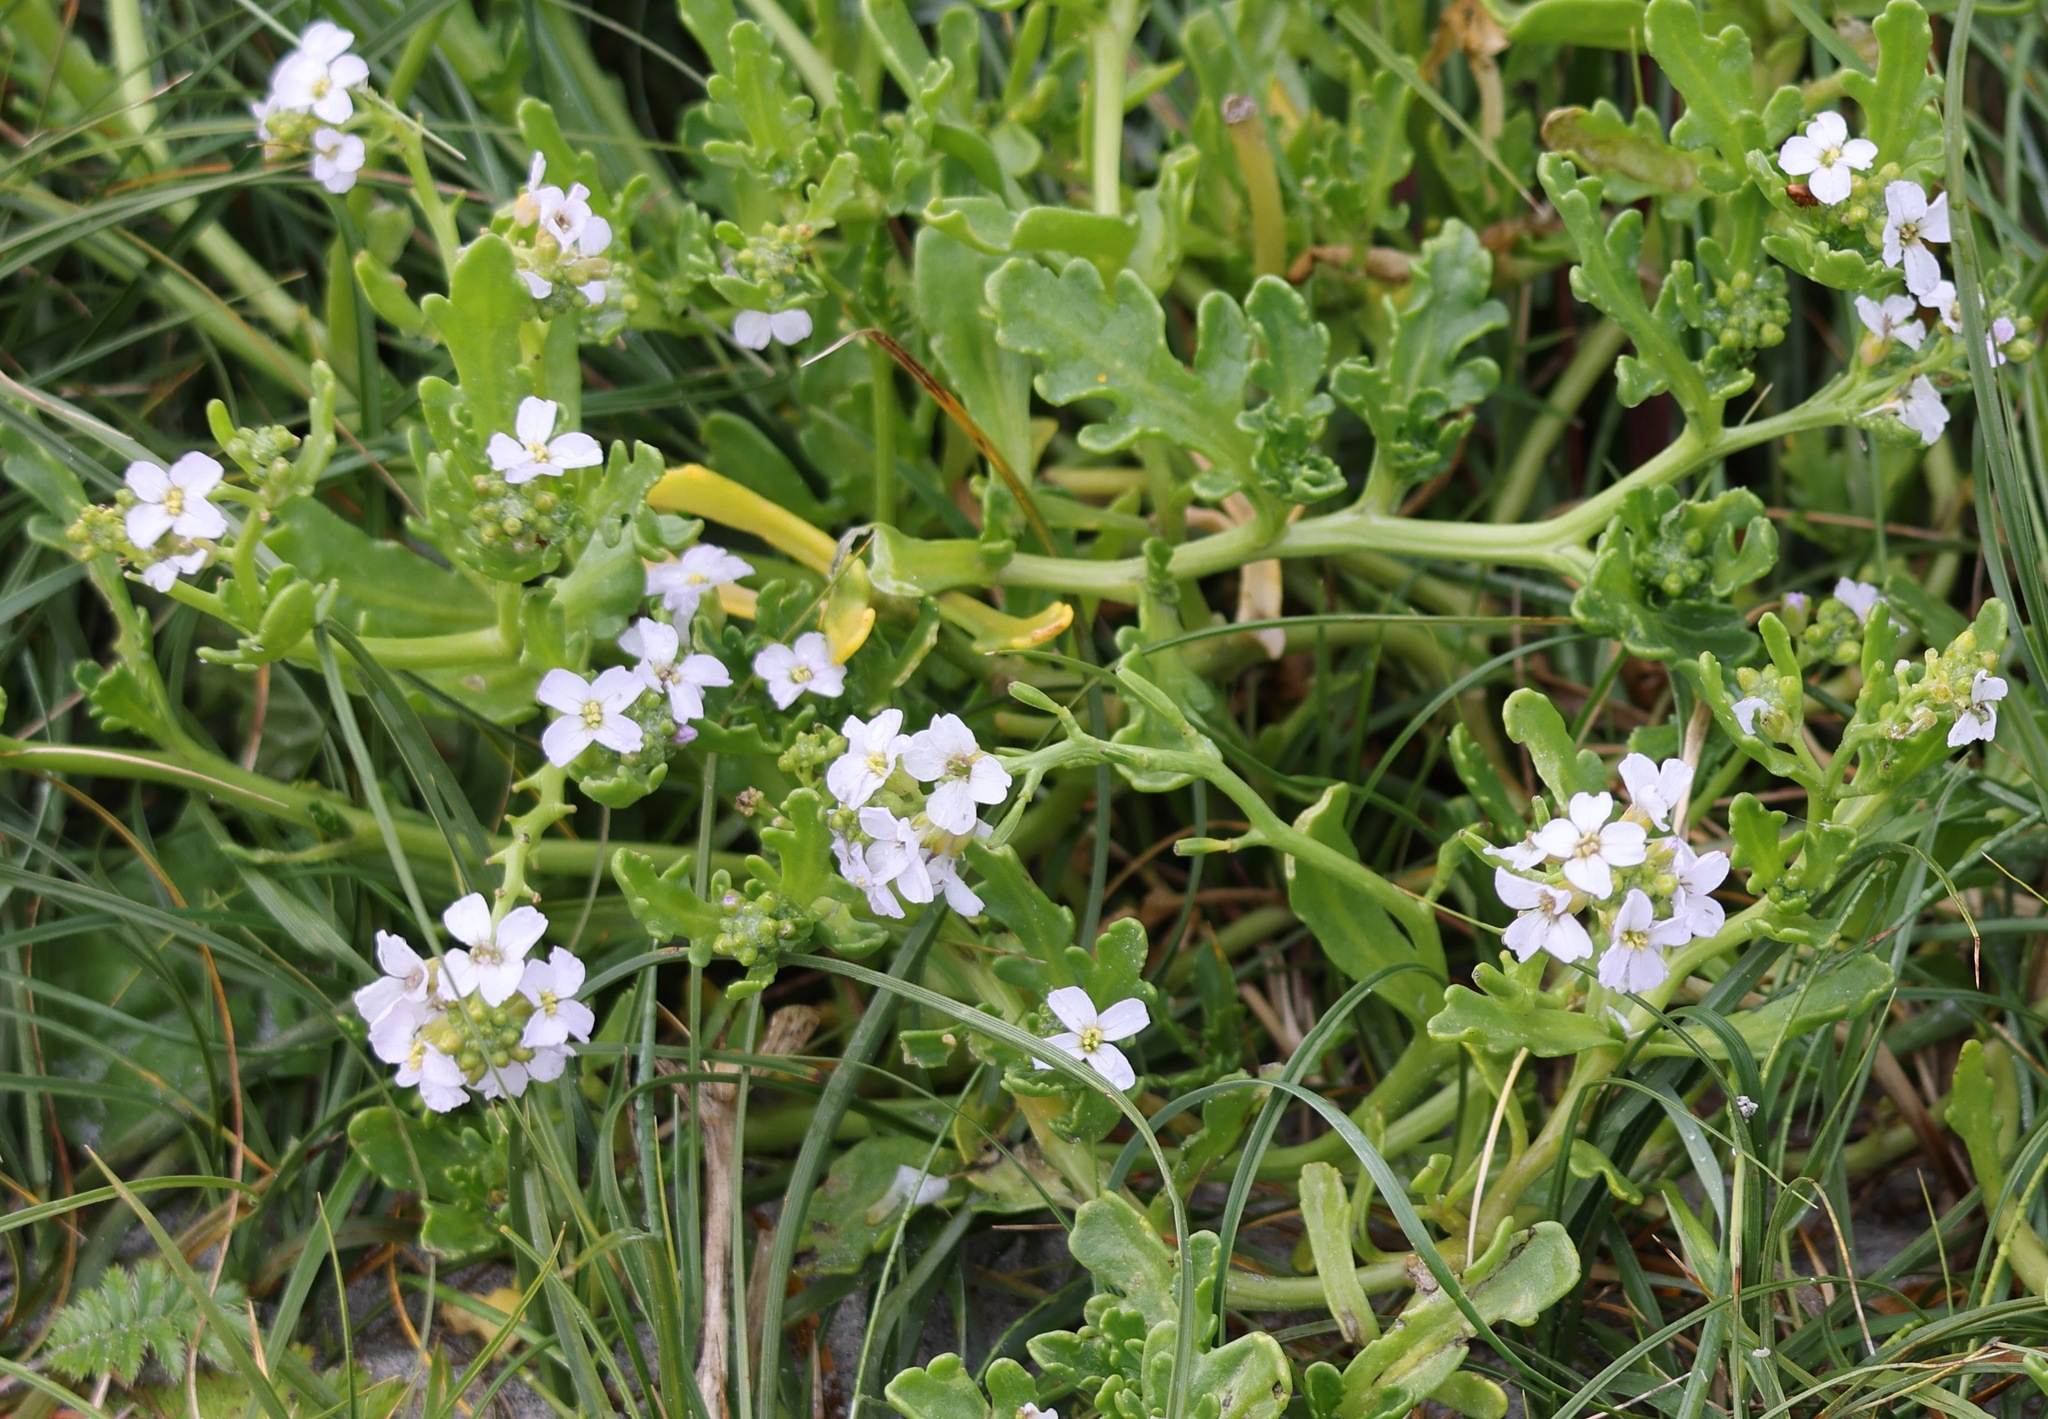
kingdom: Plantae
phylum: Tracheophyta
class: Magnoliopsida
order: Brassicales
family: Brassicaceae
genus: Cakile
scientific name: Cakile maritima
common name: Sea rocket
